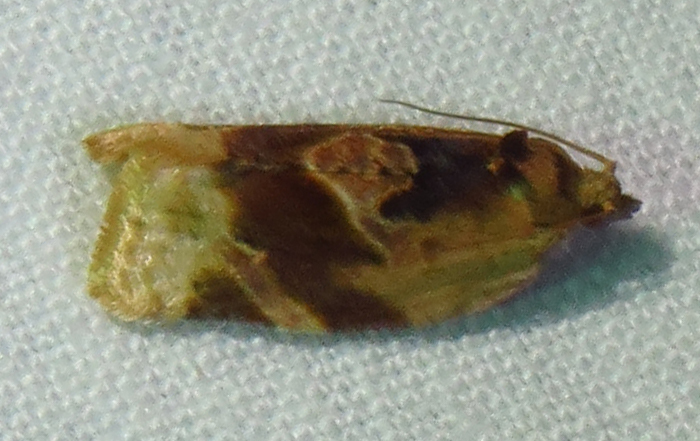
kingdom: Animalia
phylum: Arthropoda
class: Insecta
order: Lepidoptera
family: Tortricidae
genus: Argyrotaenia
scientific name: Argyrotaenia velutinana
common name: Red-banded leafroller moth
